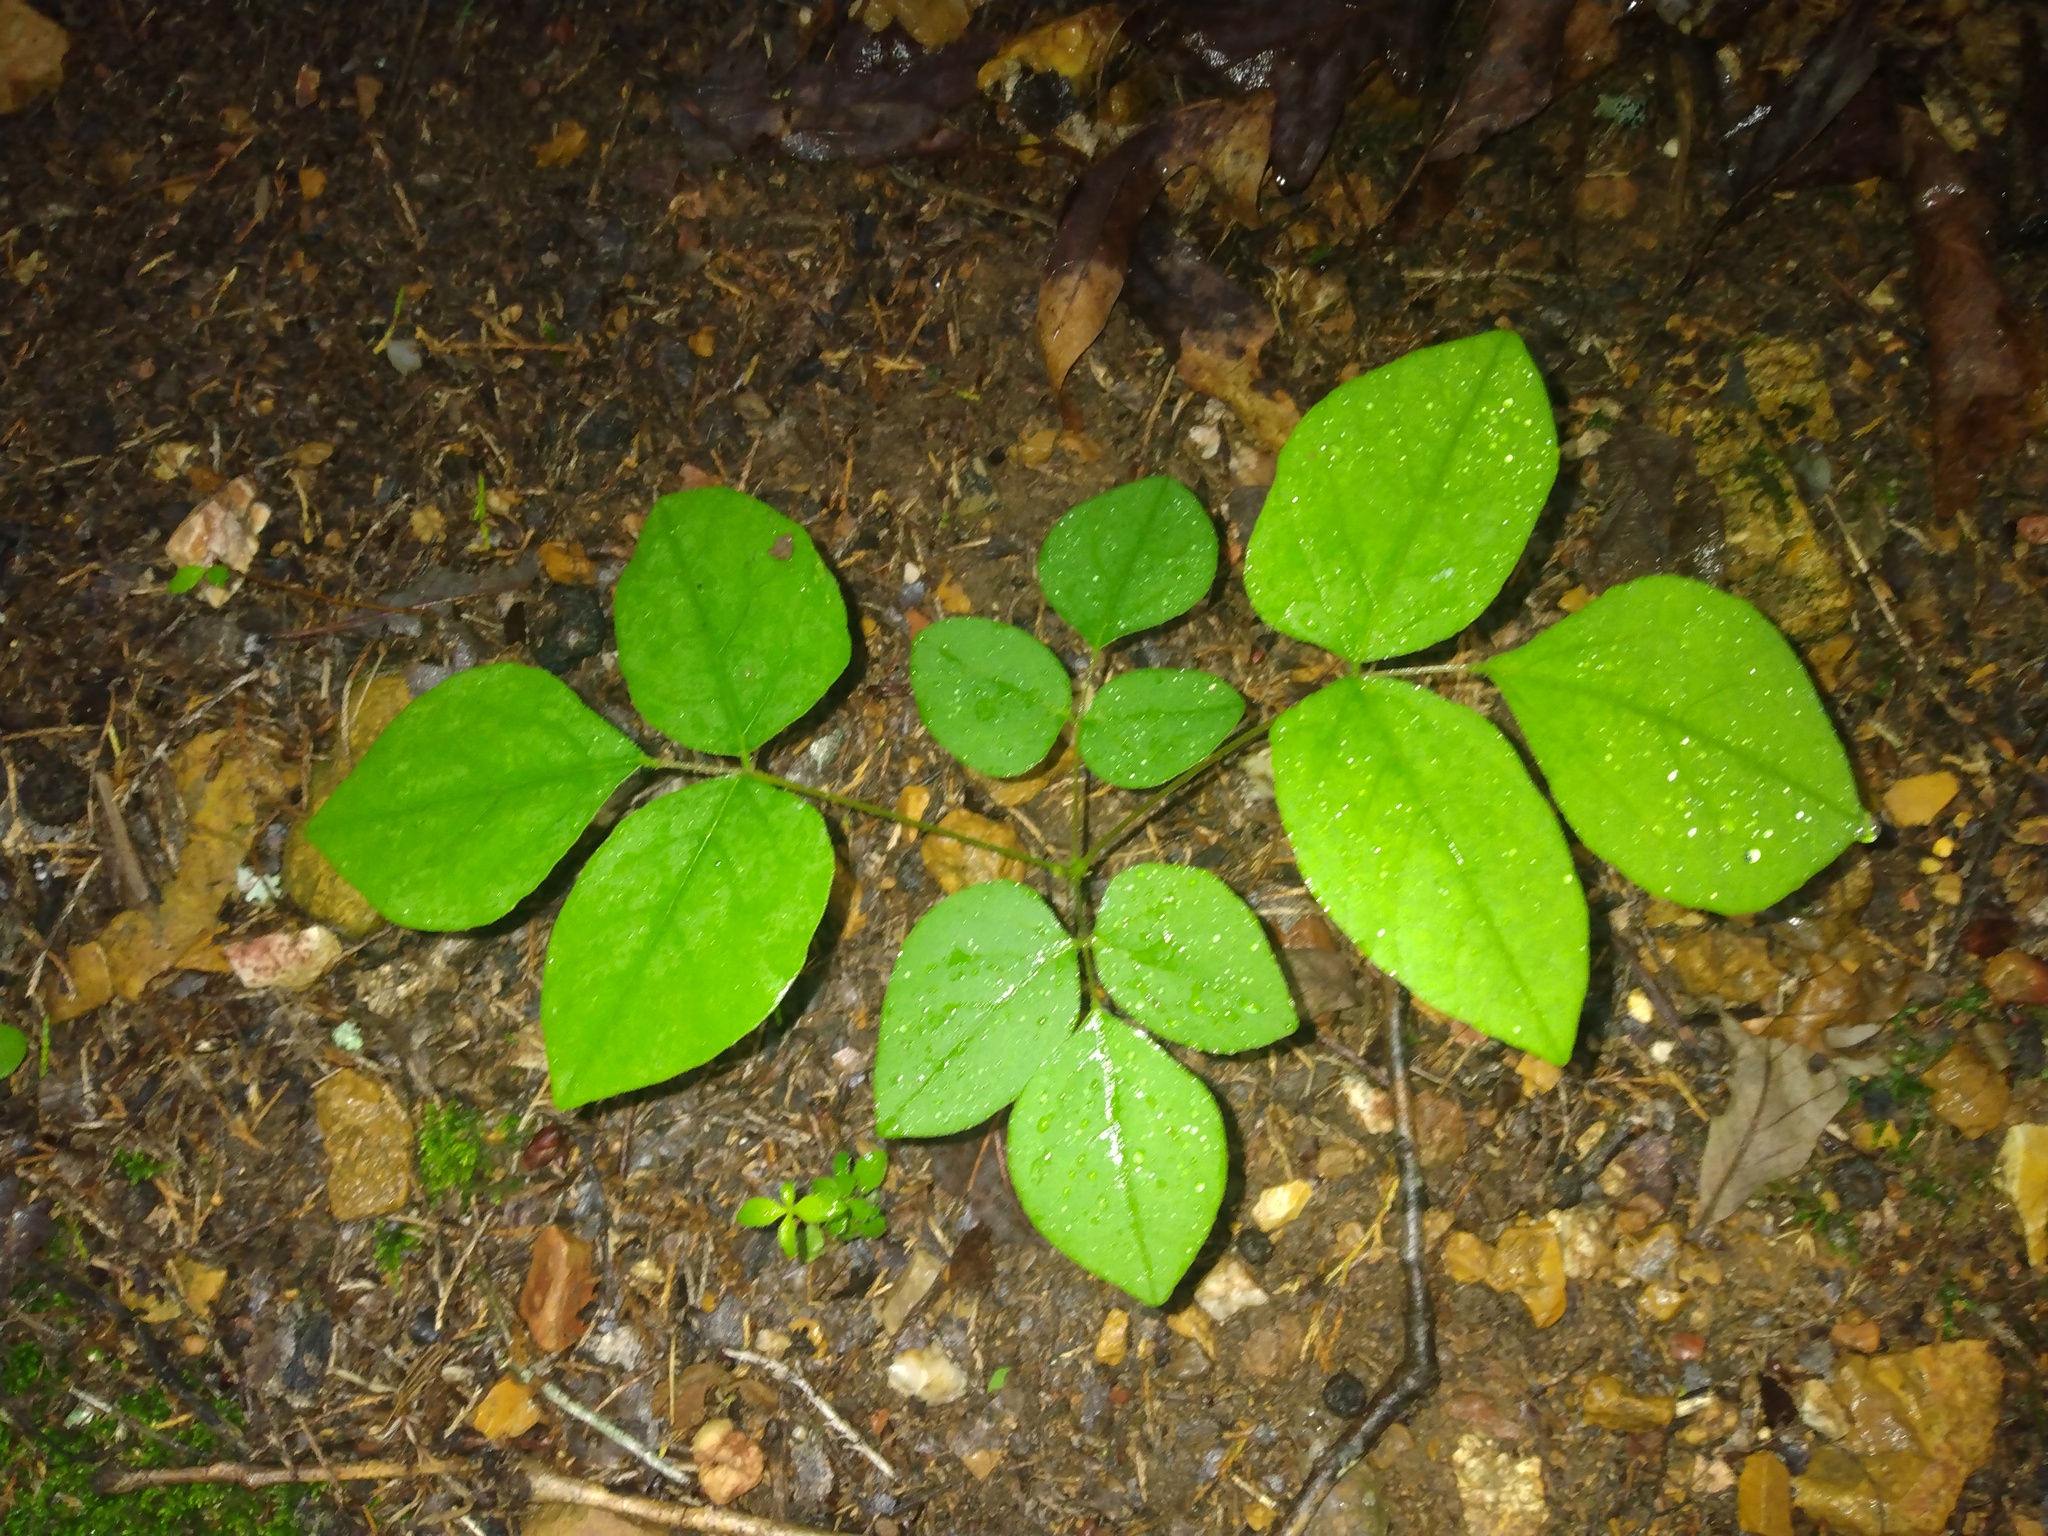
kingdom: Plantae
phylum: Tracheophyta
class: Magnoliopsida
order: Fabales
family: Fabaceae
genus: Hylodesmum
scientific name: Hylodesmum nudiflorum
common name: Bare-stemmed tick-trefoil
